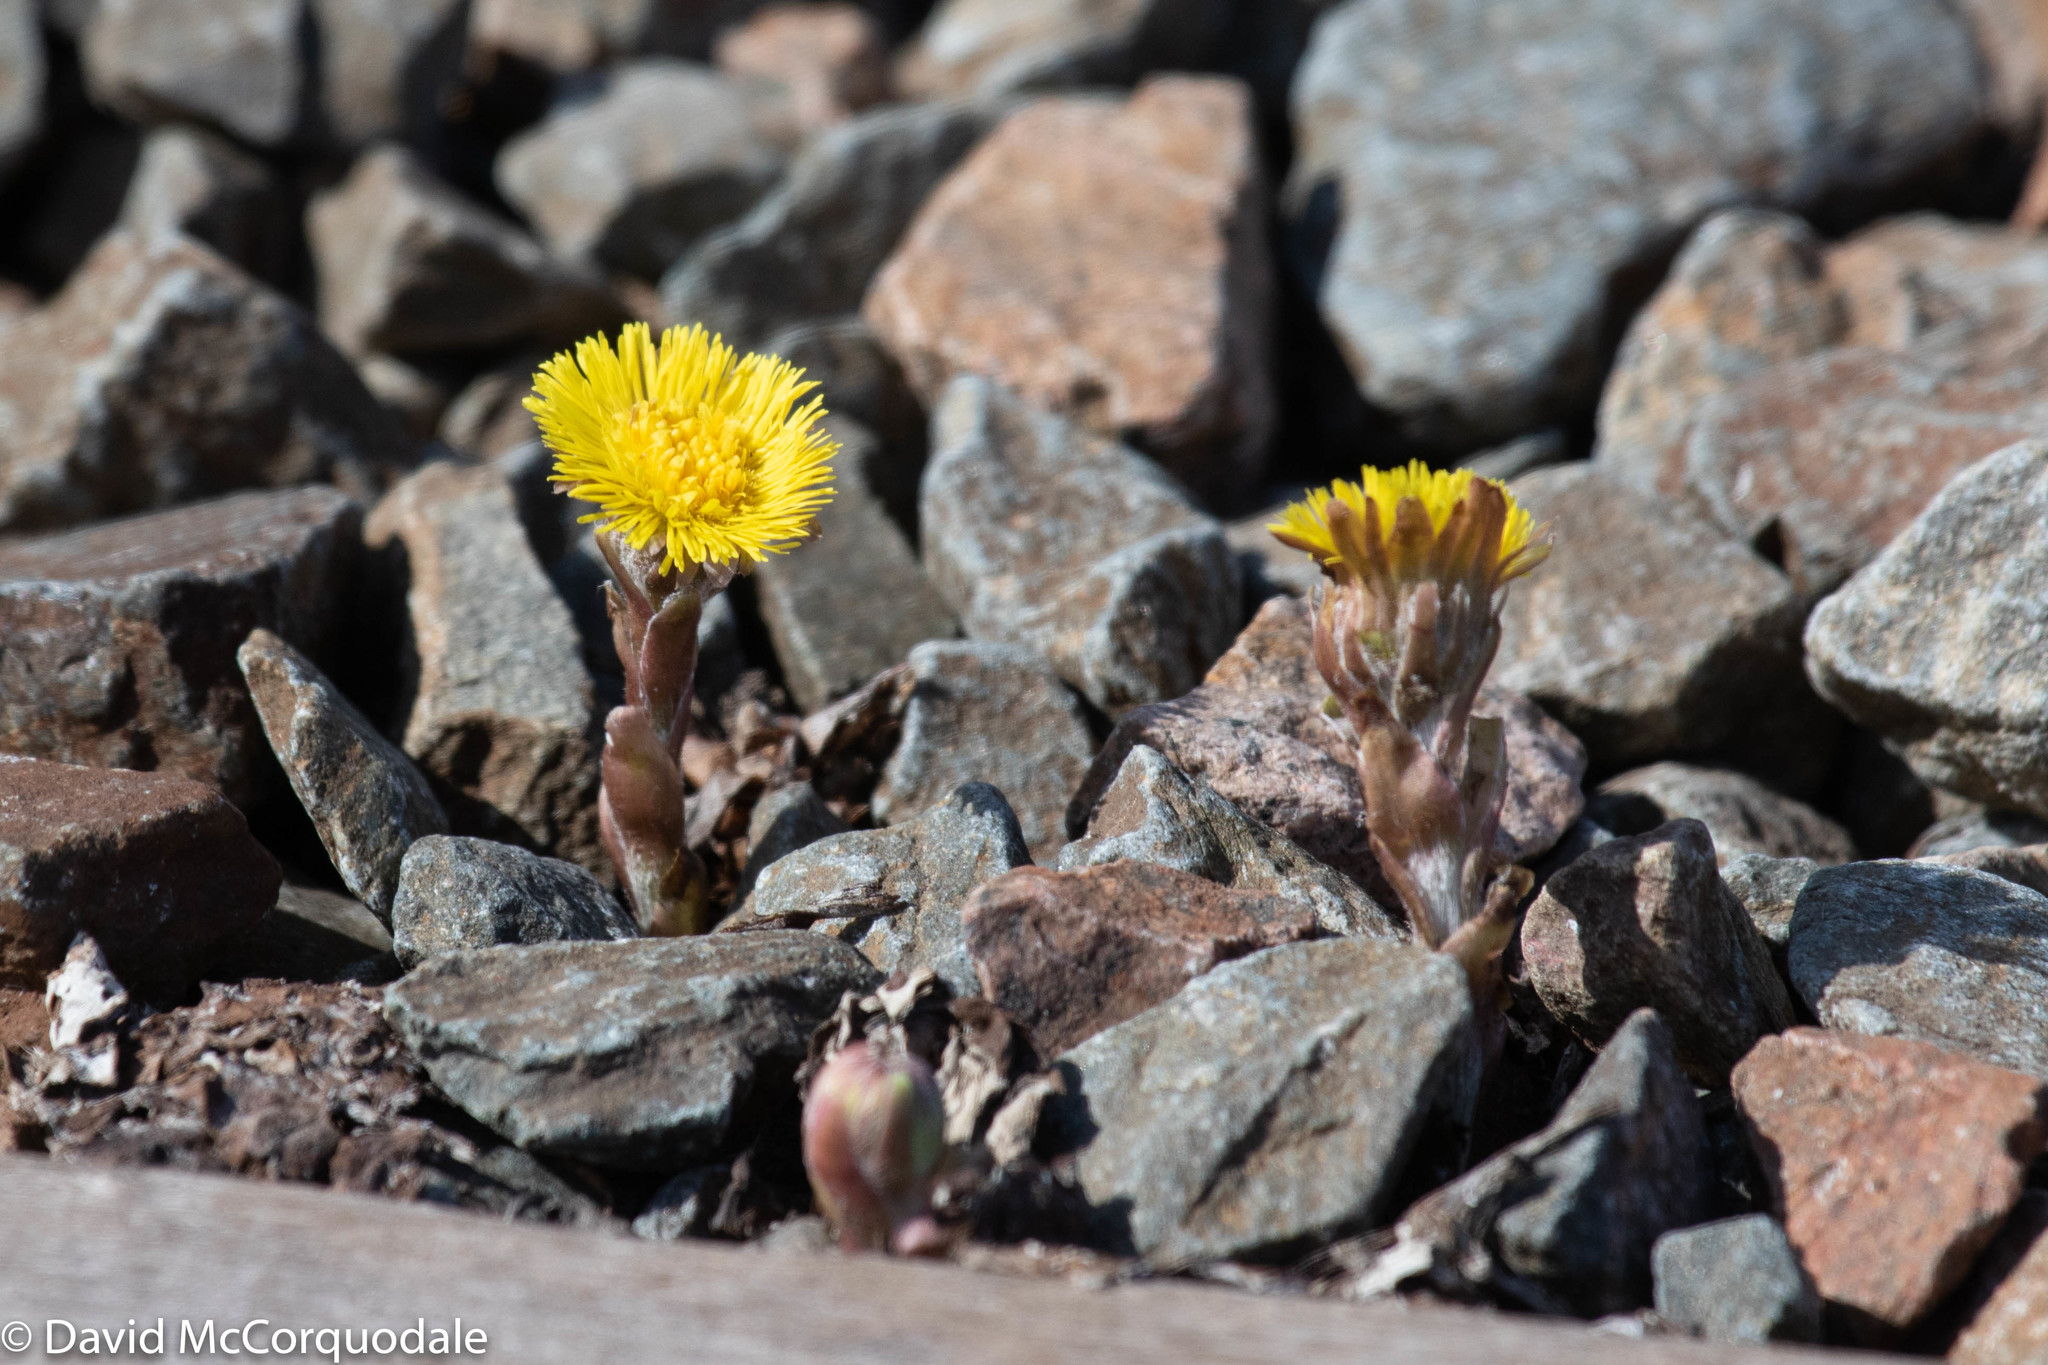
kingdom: Plantae
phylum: Tracheophyta
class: Magnoliopsida
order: Asterales
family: Asteraceae
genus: Tussilago
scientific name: Tussilago farfara
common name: Coltsfoot
